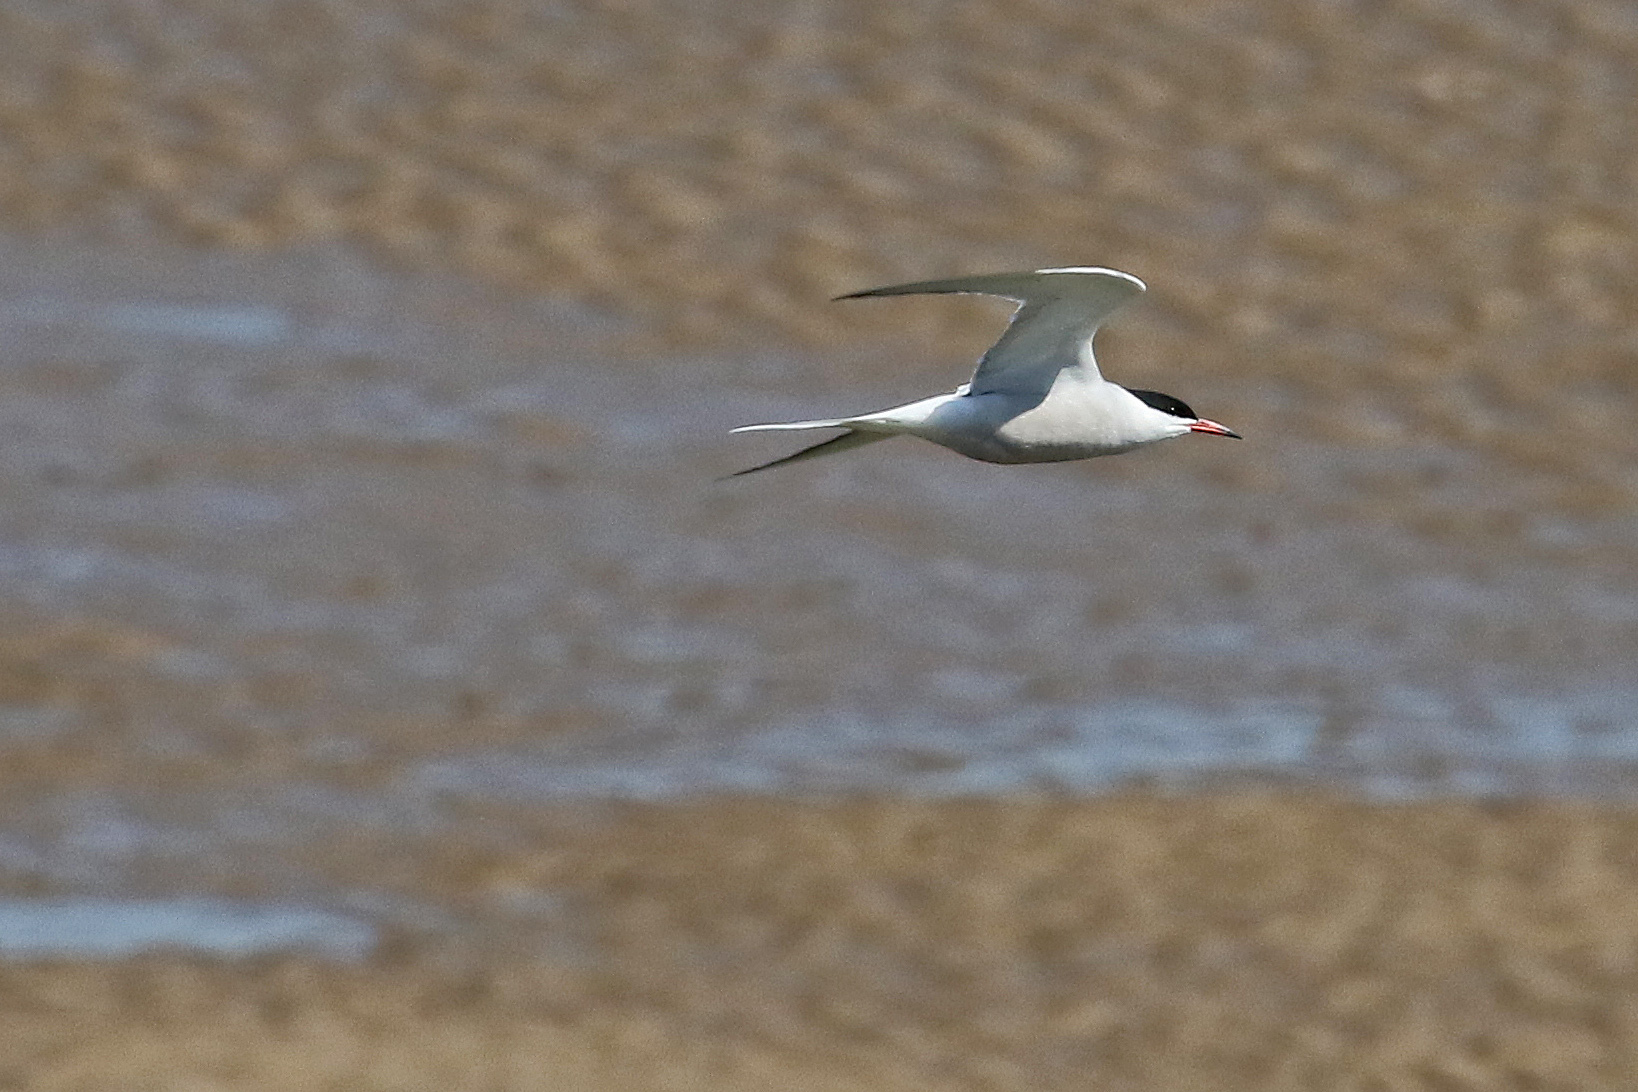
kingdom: Animalia
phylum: Chordata
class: Aves
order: Charadriiformes
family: Laridae
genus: Sterna
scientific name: Sterna hirundo
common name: Common tern
